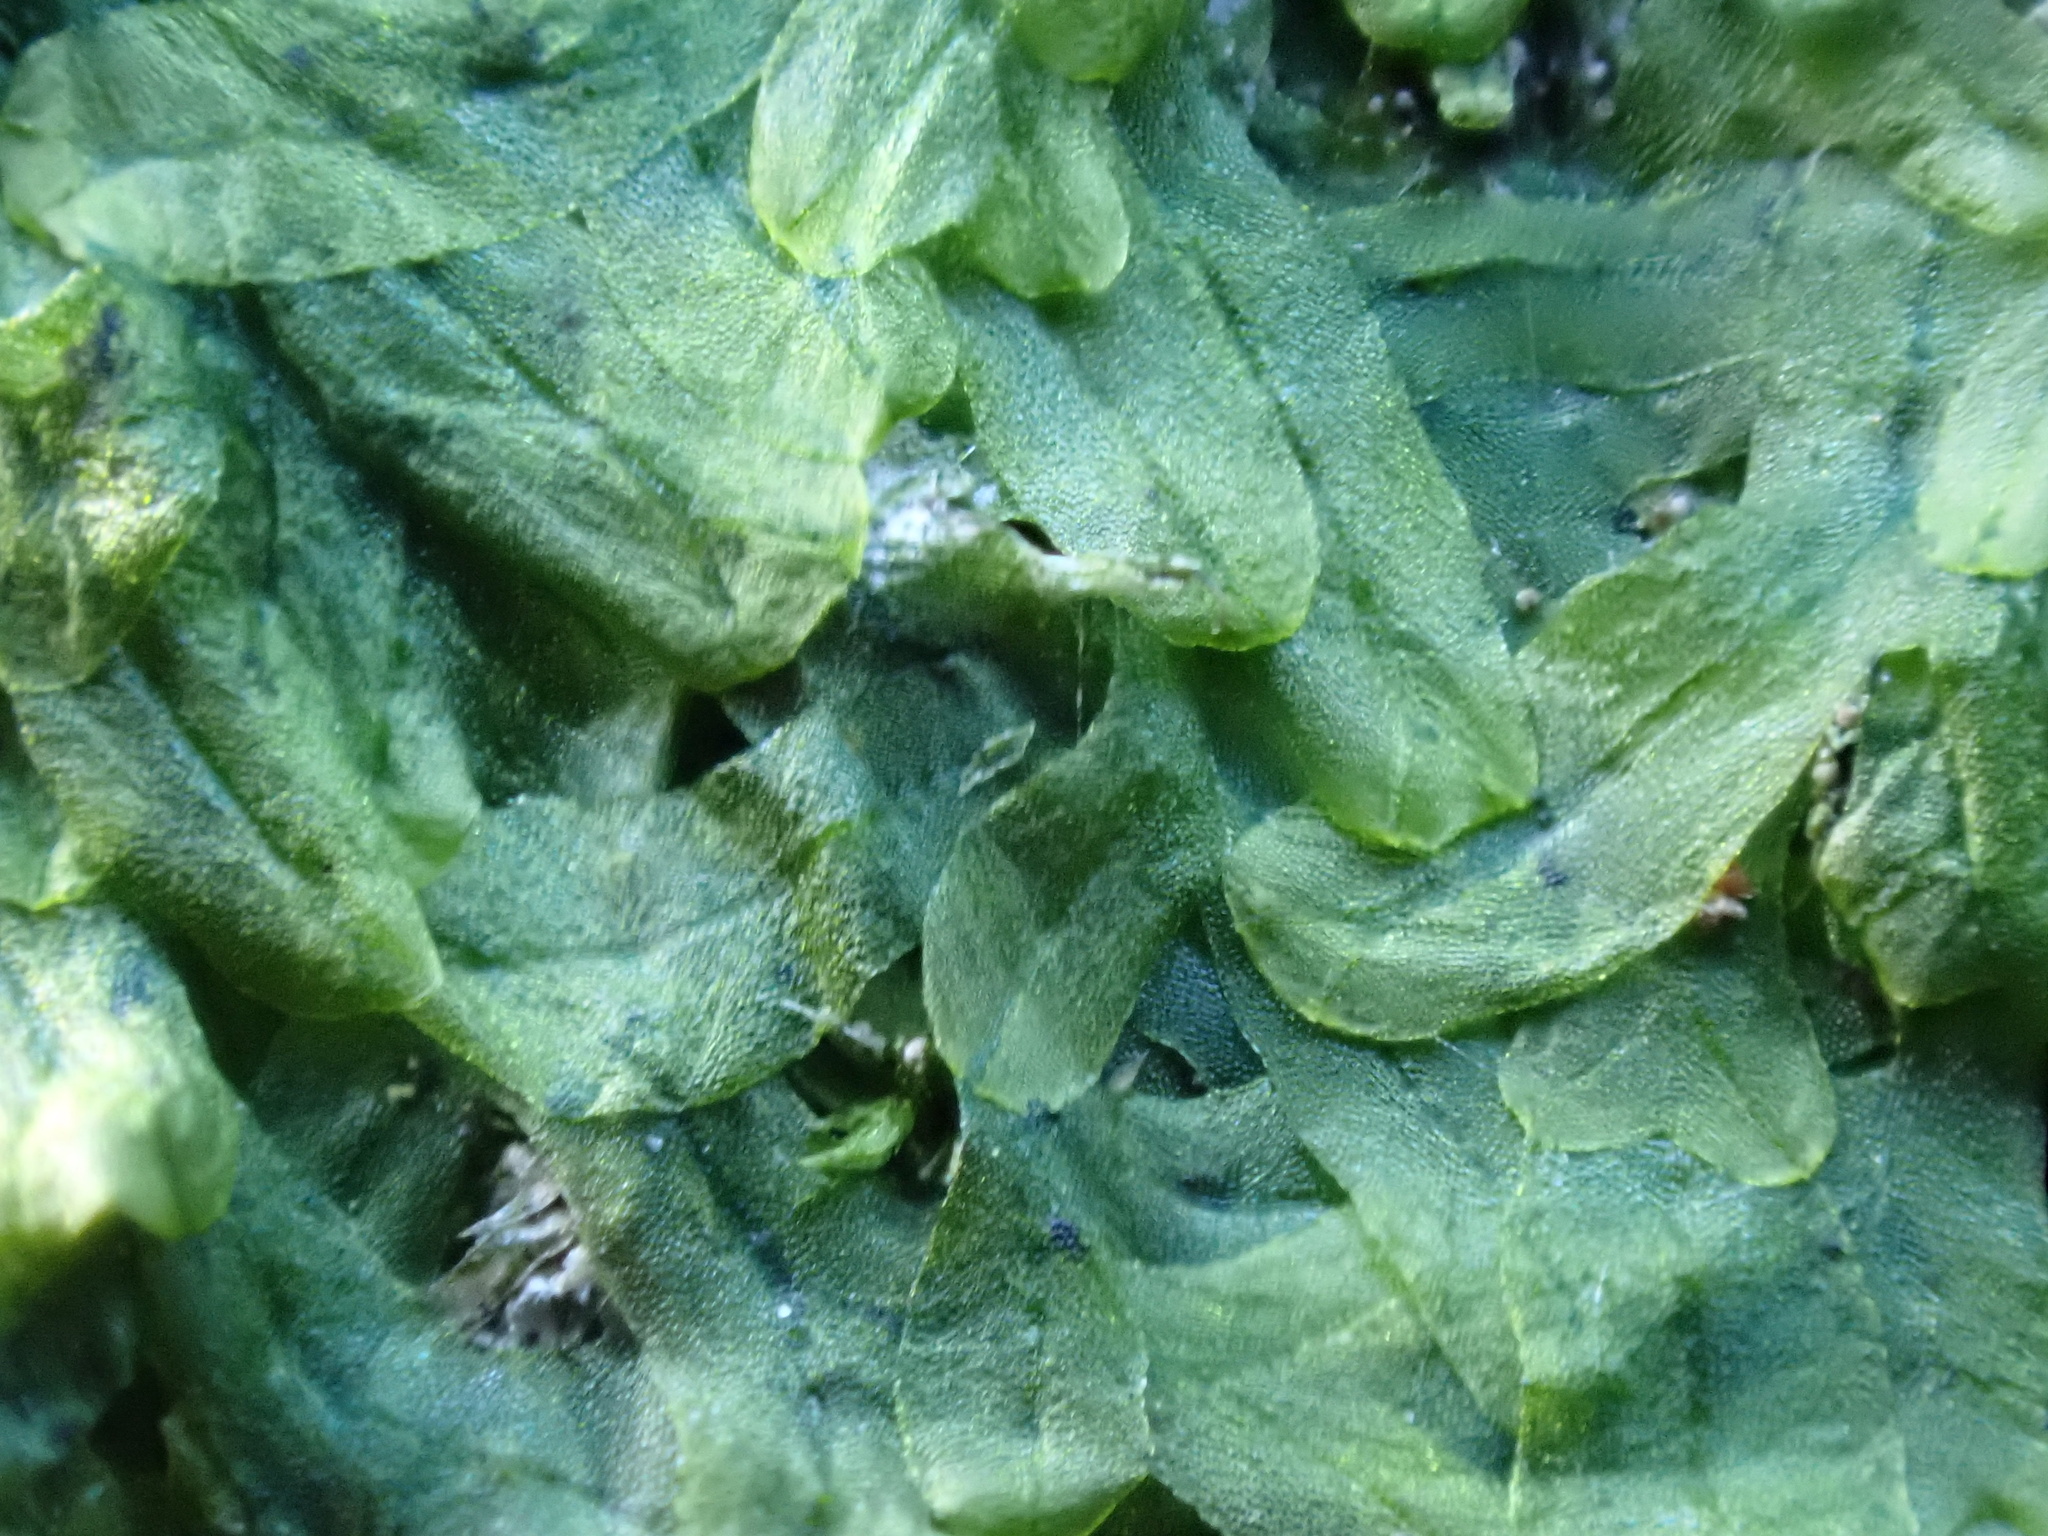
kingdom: Plantae
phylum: Marchantiophyta
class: Jungermanniopsida
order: Metzgeriales
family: Metzgeriaceae
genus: Metzgeria
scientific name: Metzgeria furcata
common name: Forked veilwort
